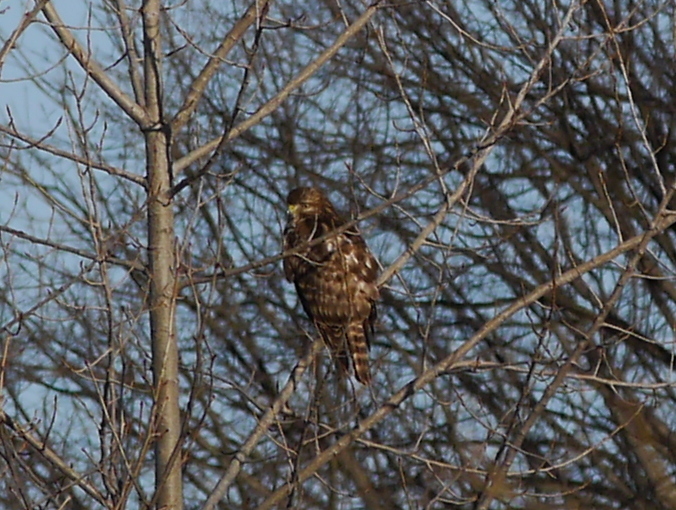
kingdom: Animalia
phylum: Chordata
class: Aves
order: Accipitriformes
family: Accipitridae
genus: Buteo
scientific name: Buteo lineatus
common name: Red-shouldered hawk
